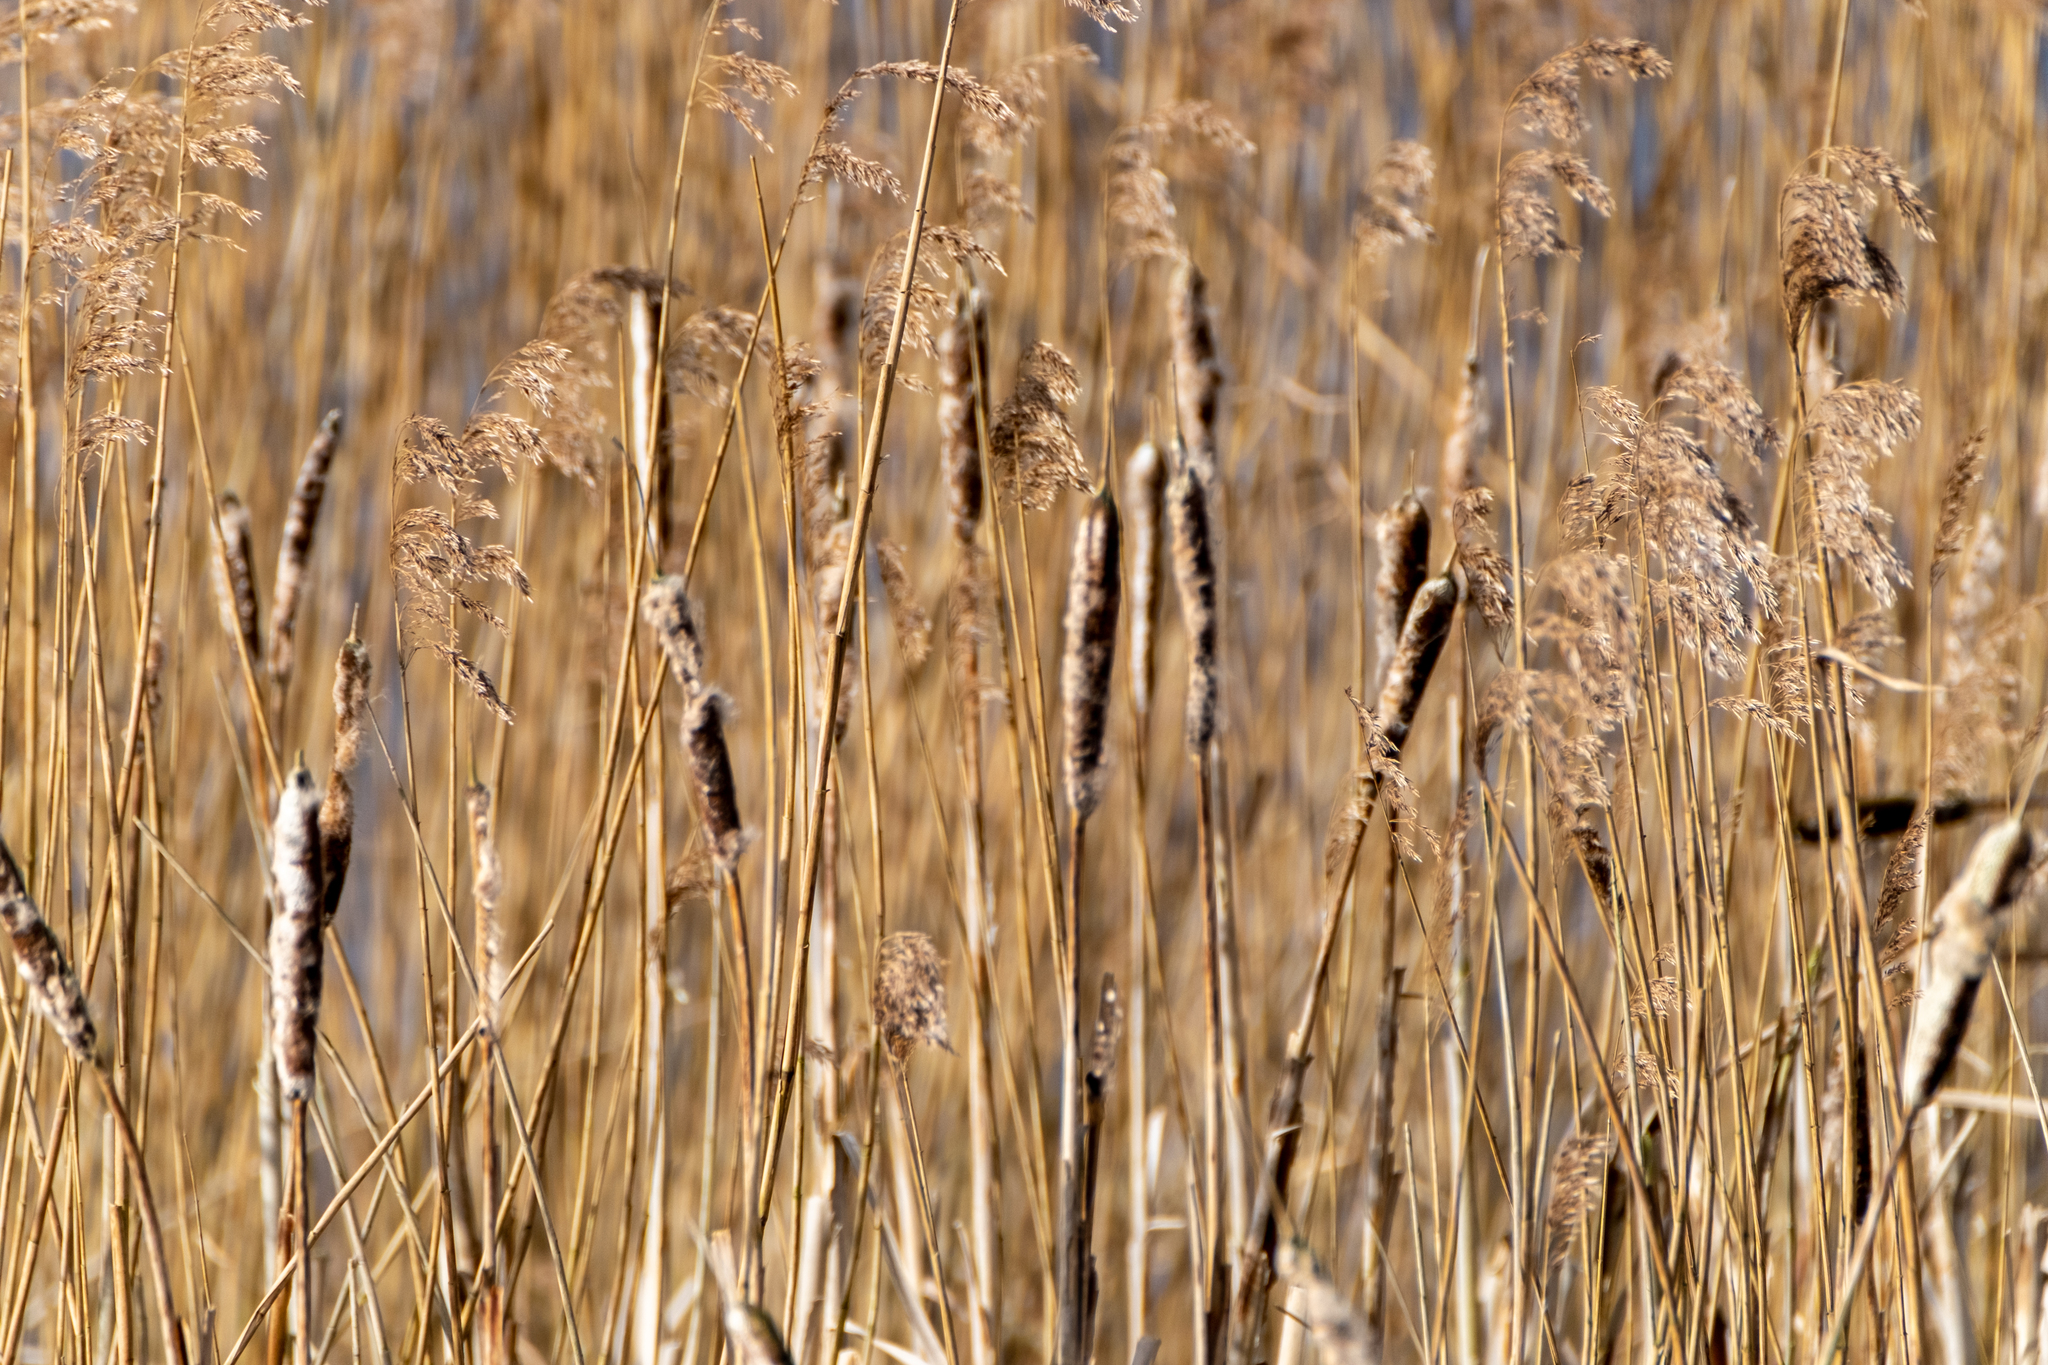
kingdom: Plantae
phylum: Tracheophyta
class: Liliopsida
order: Poales
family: Typhaceae
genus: Typha
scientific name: Typha latifolia
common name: Broadleaf cattail
